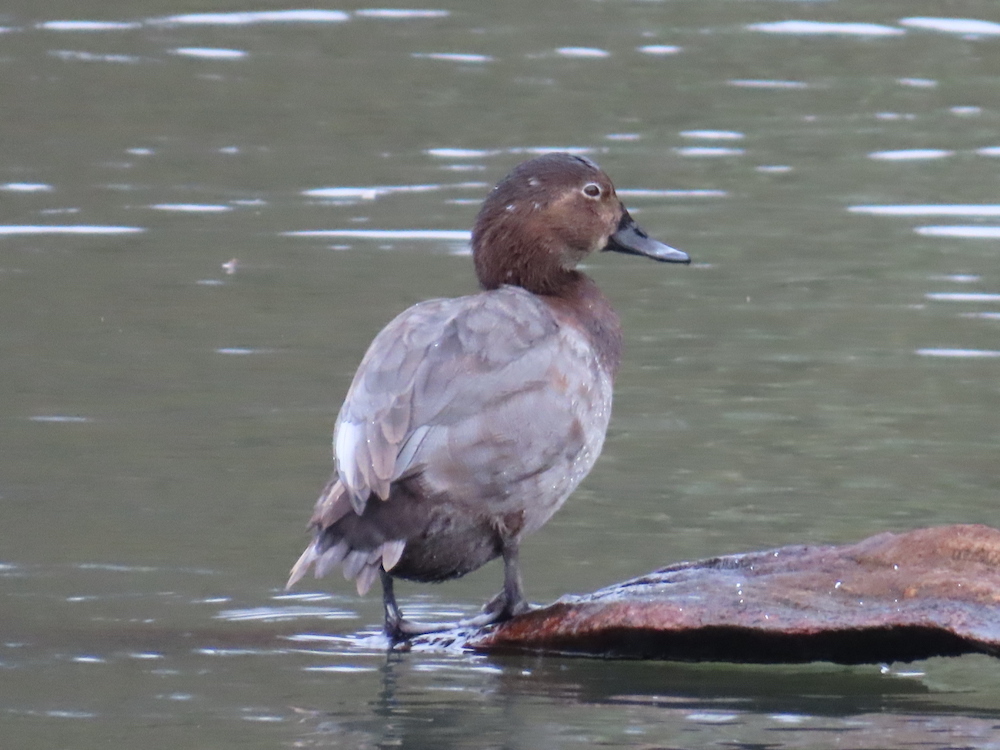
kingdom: Animalia
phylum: Chordata
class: Aves
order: Anseriformes
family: Anatidae
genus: Aythya
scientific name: Aythya ferina
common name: Common pochard
